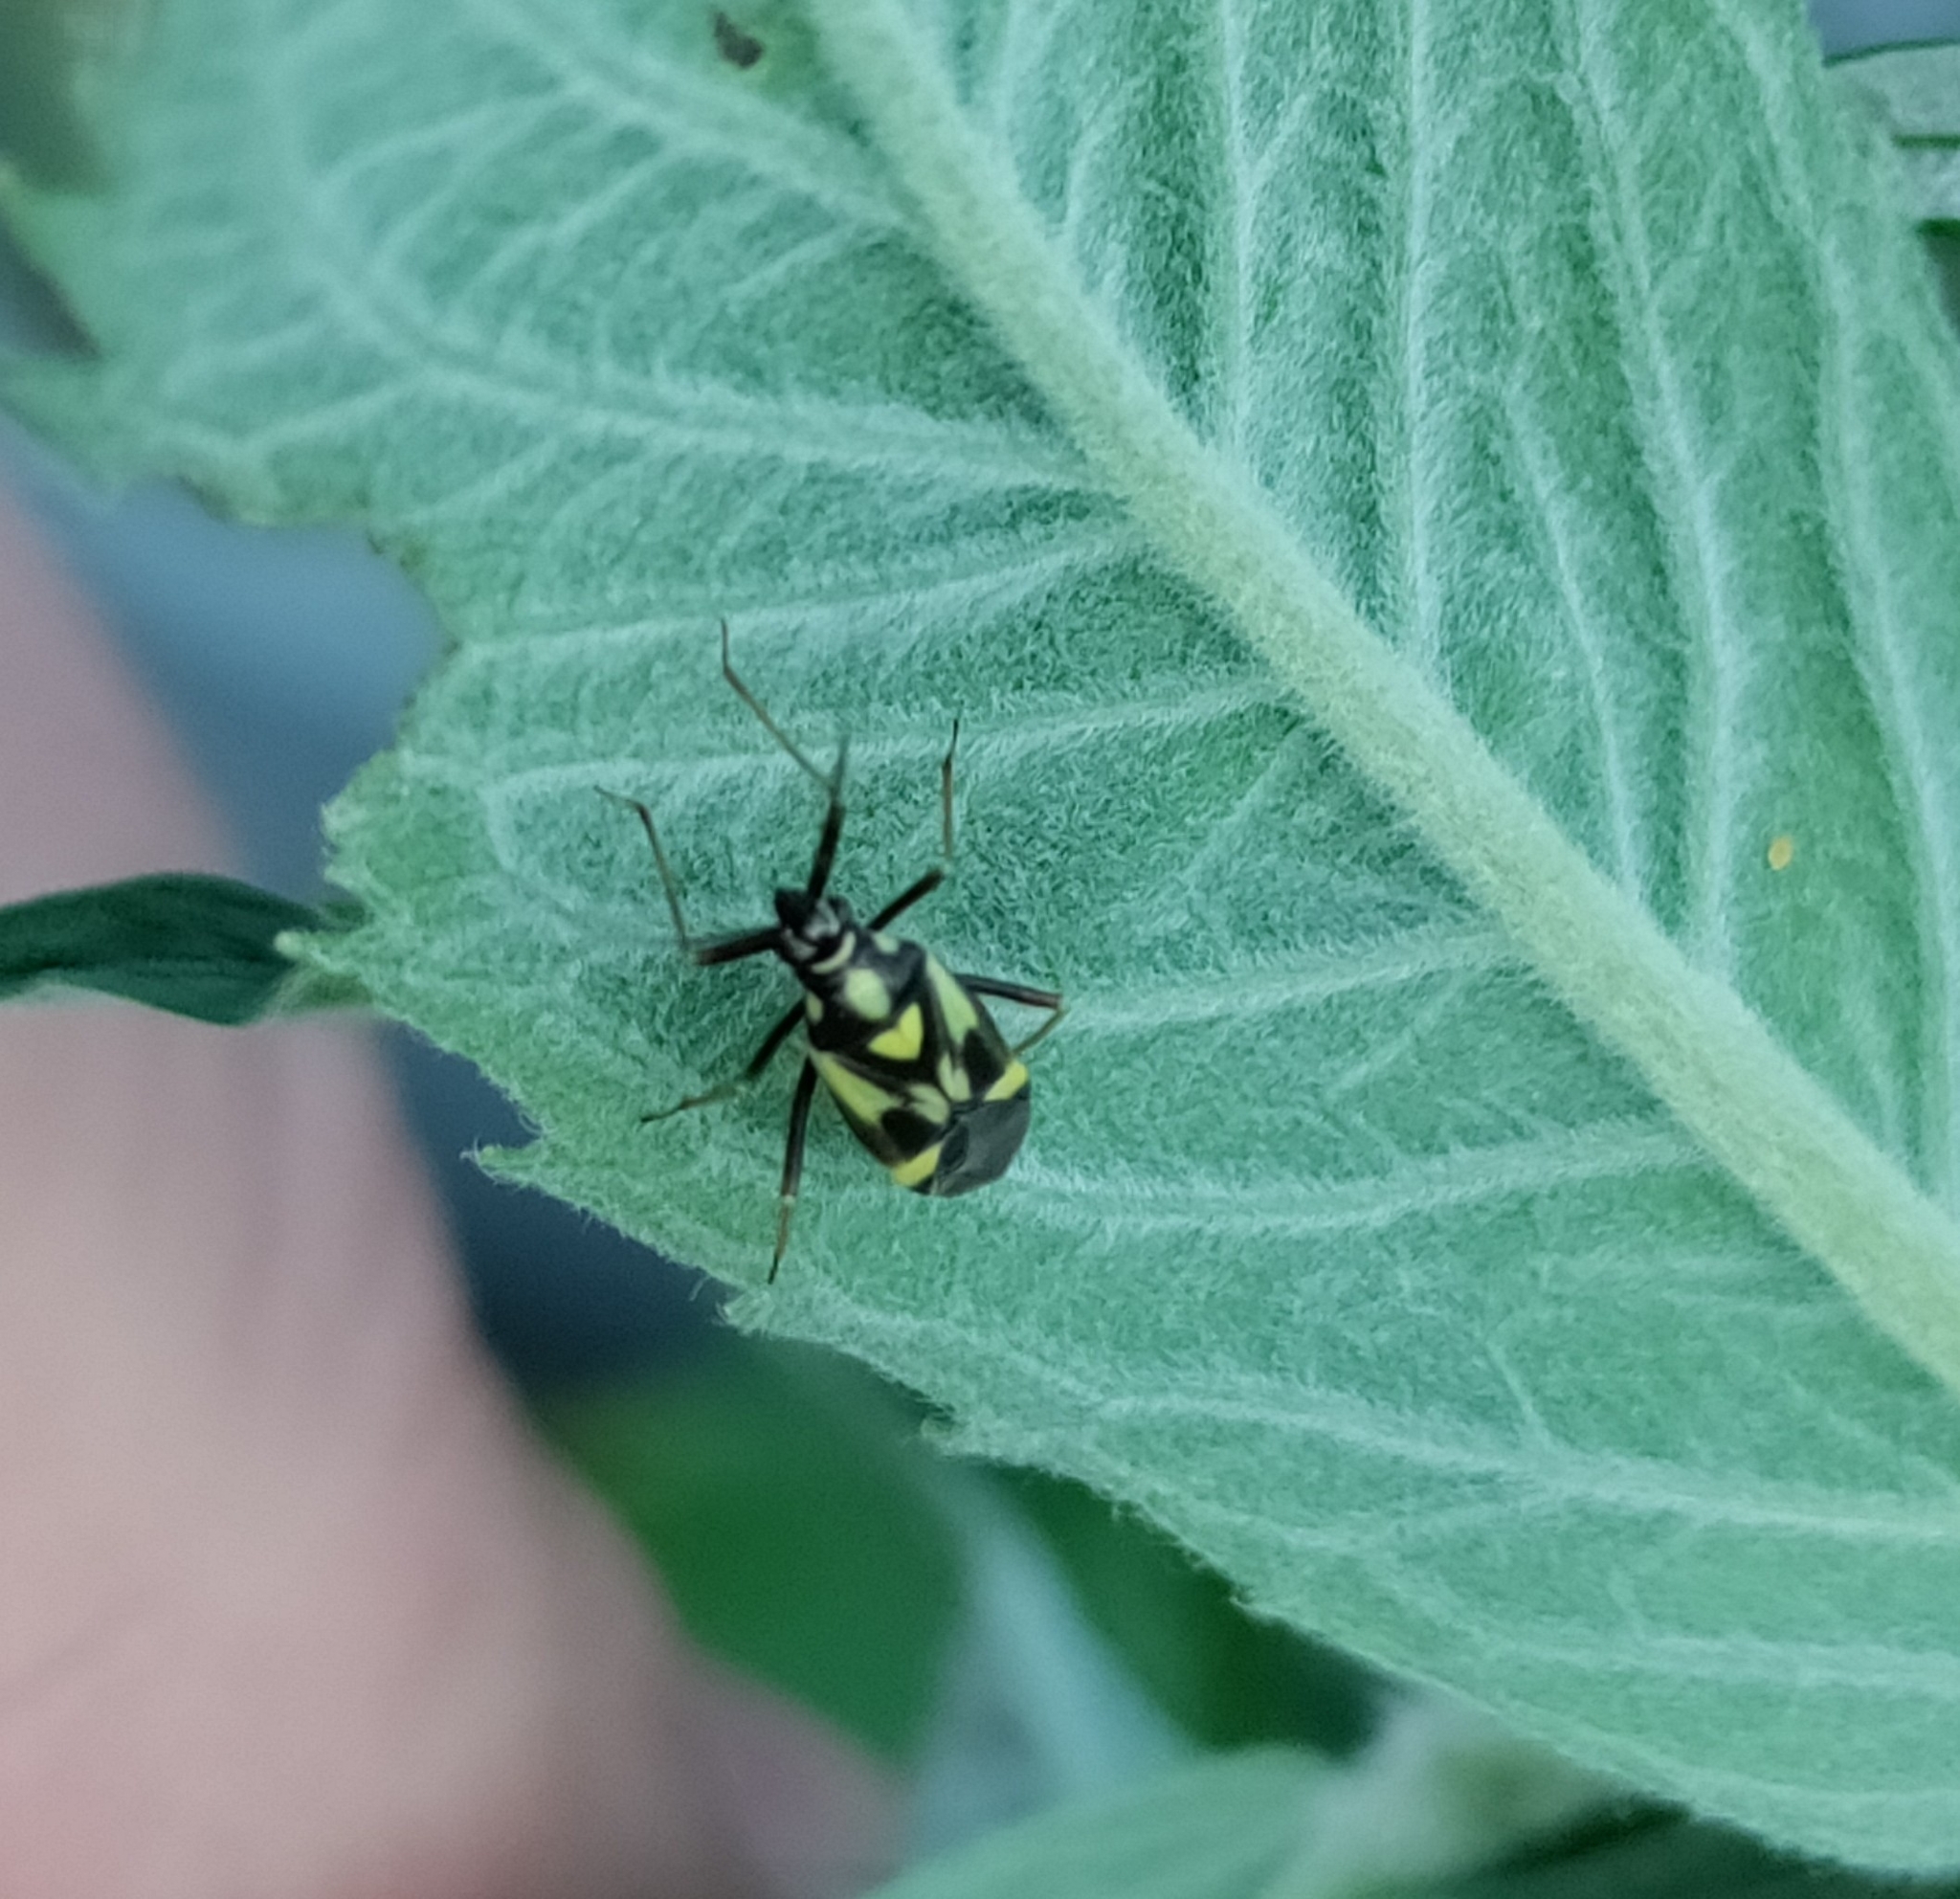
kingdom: Animalia
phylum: Arthropoda
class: Insecta
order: Hemiptera
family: Miridae
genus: Grypocoris
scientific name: Grypocoris sexguttatus
